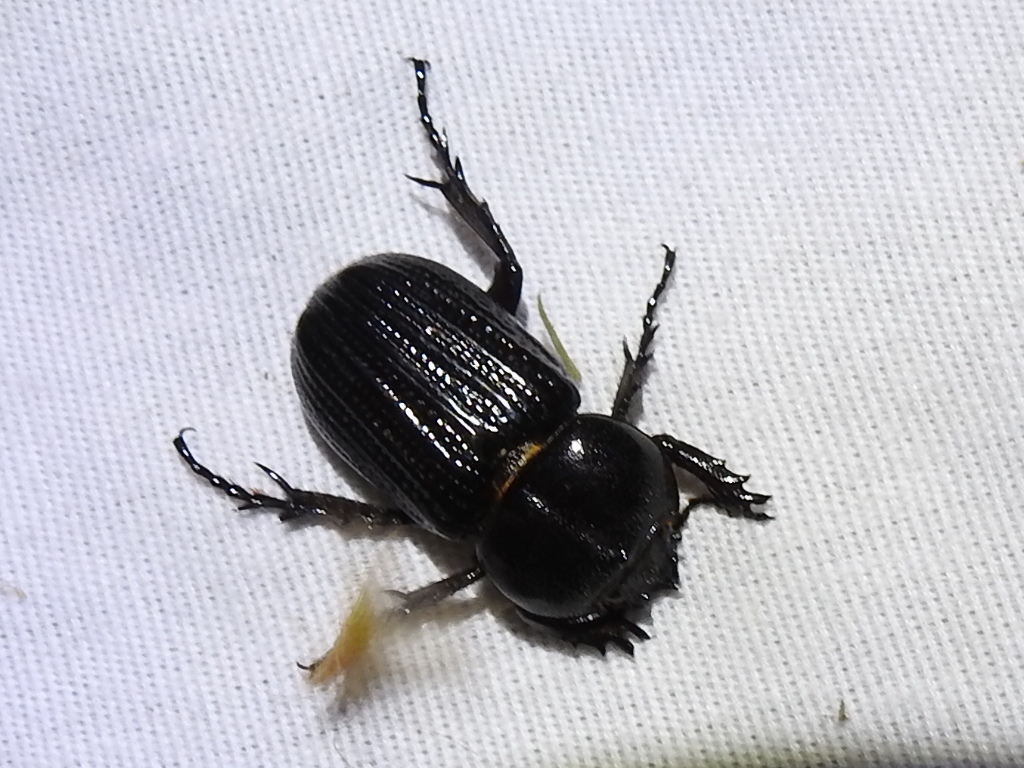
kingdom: Animalia
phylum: Arthropoda
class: Insecta
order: Coleoptera
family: Scarabaeidae
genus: Phileurus
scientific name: Phileurus valgus
